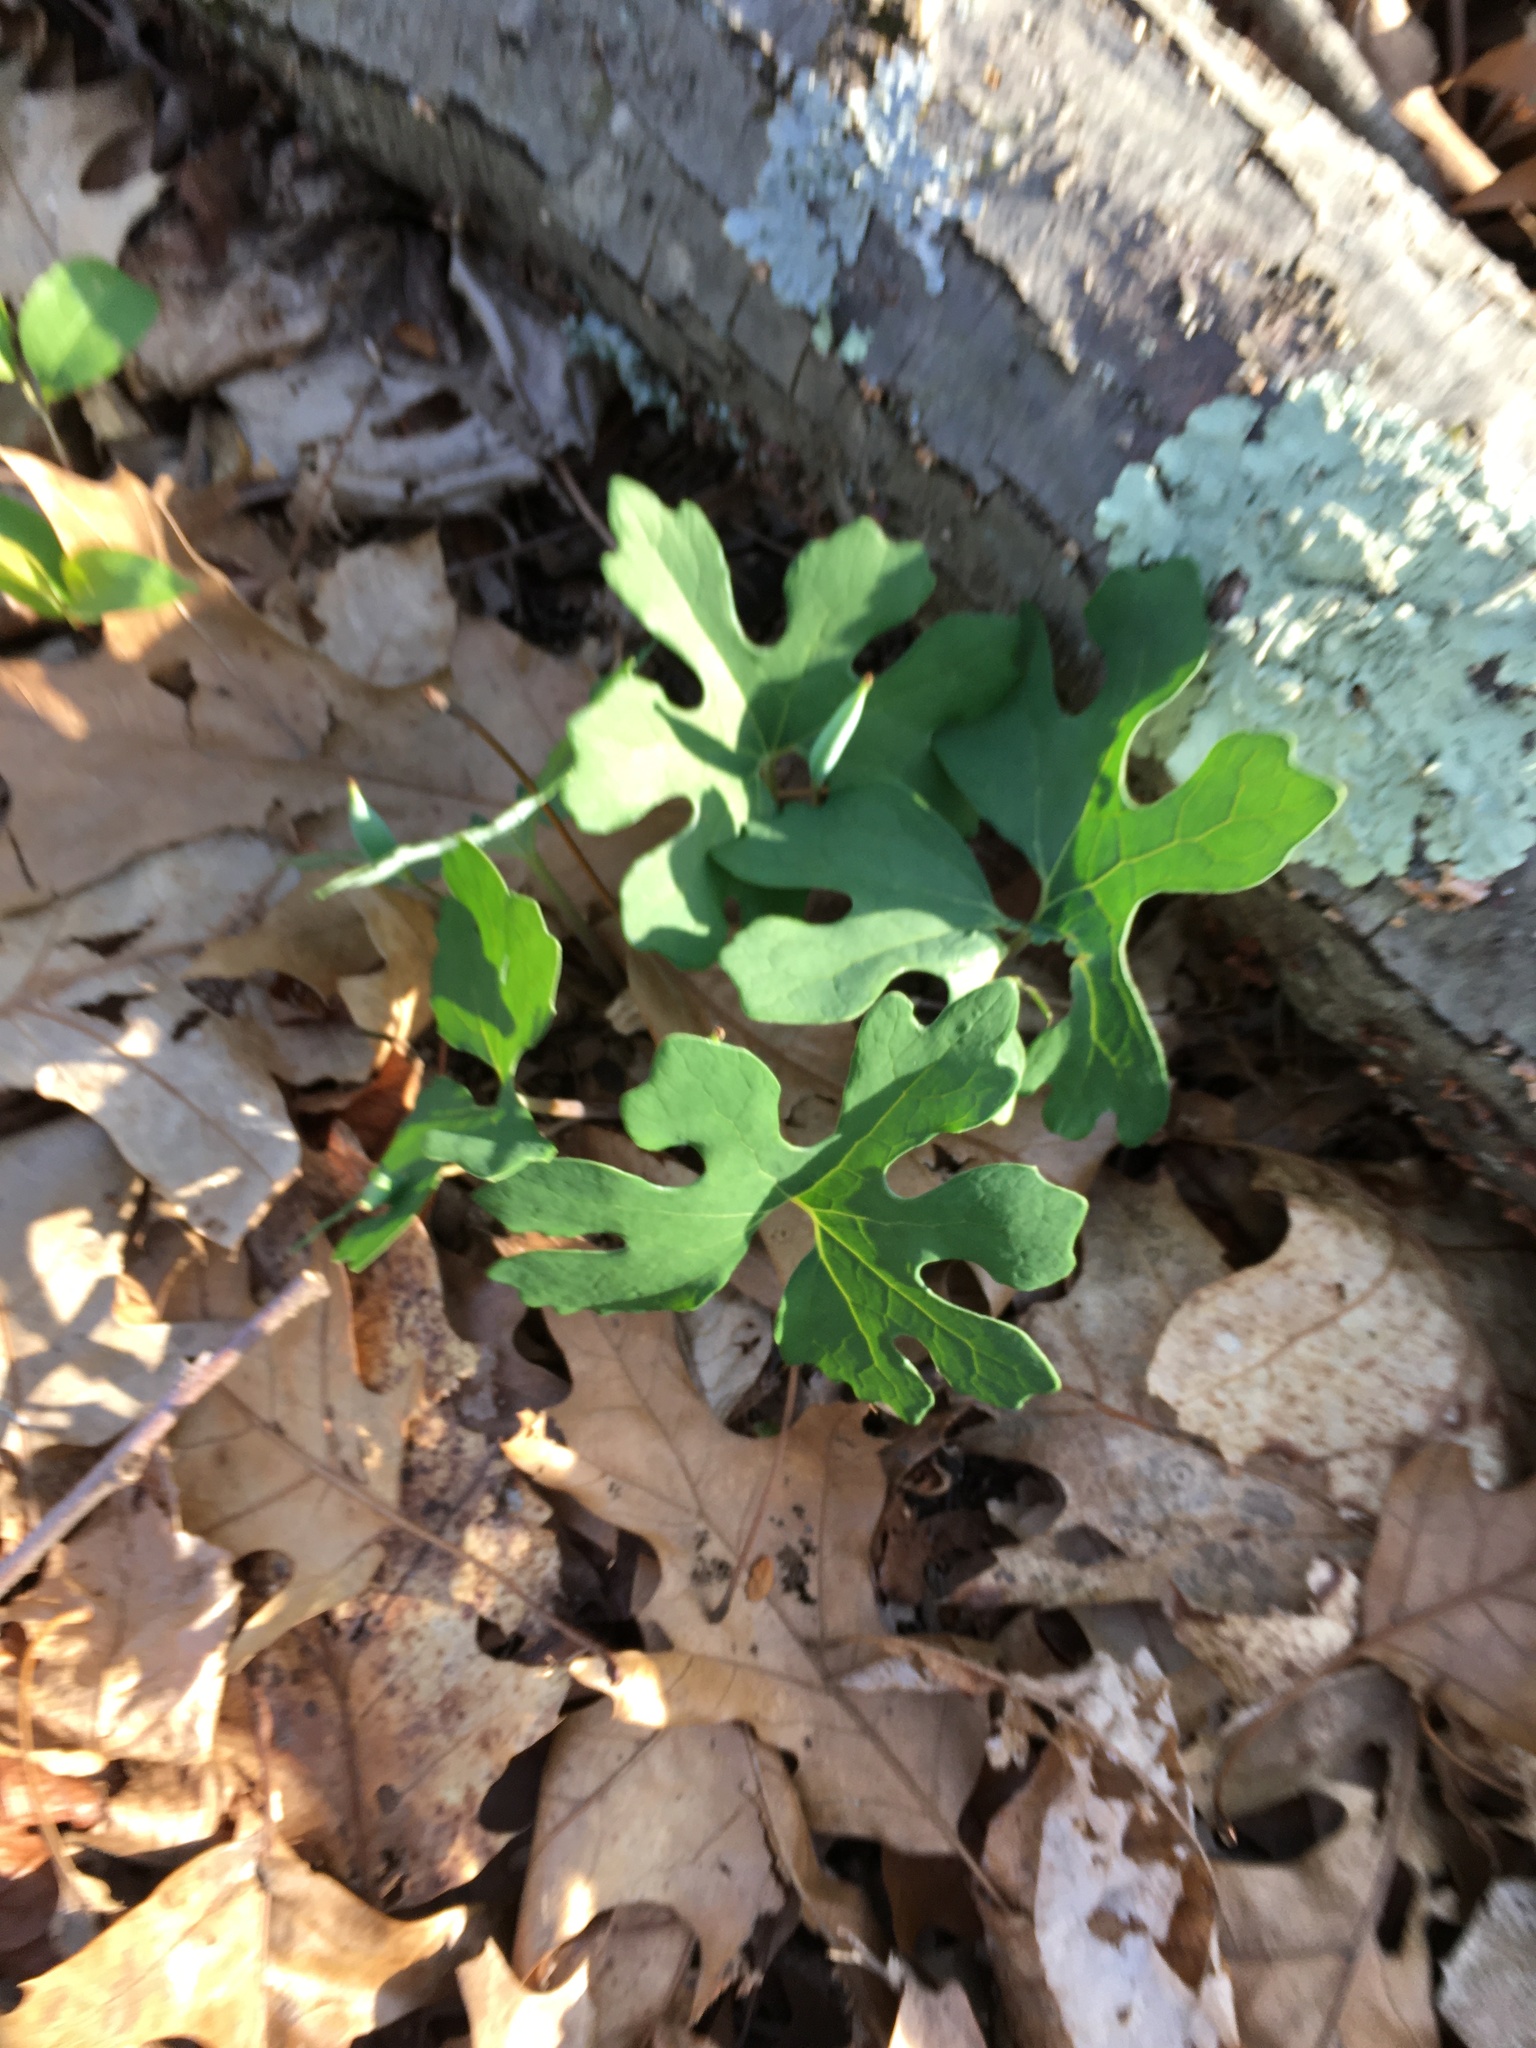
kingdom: Plantae
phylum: Tracheophyta
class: Magnoliopsida
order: Ranunculales
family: Papaveraceae
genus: Sanguinaria
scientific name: Sanguinaria canadensis
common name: Bloodroot
